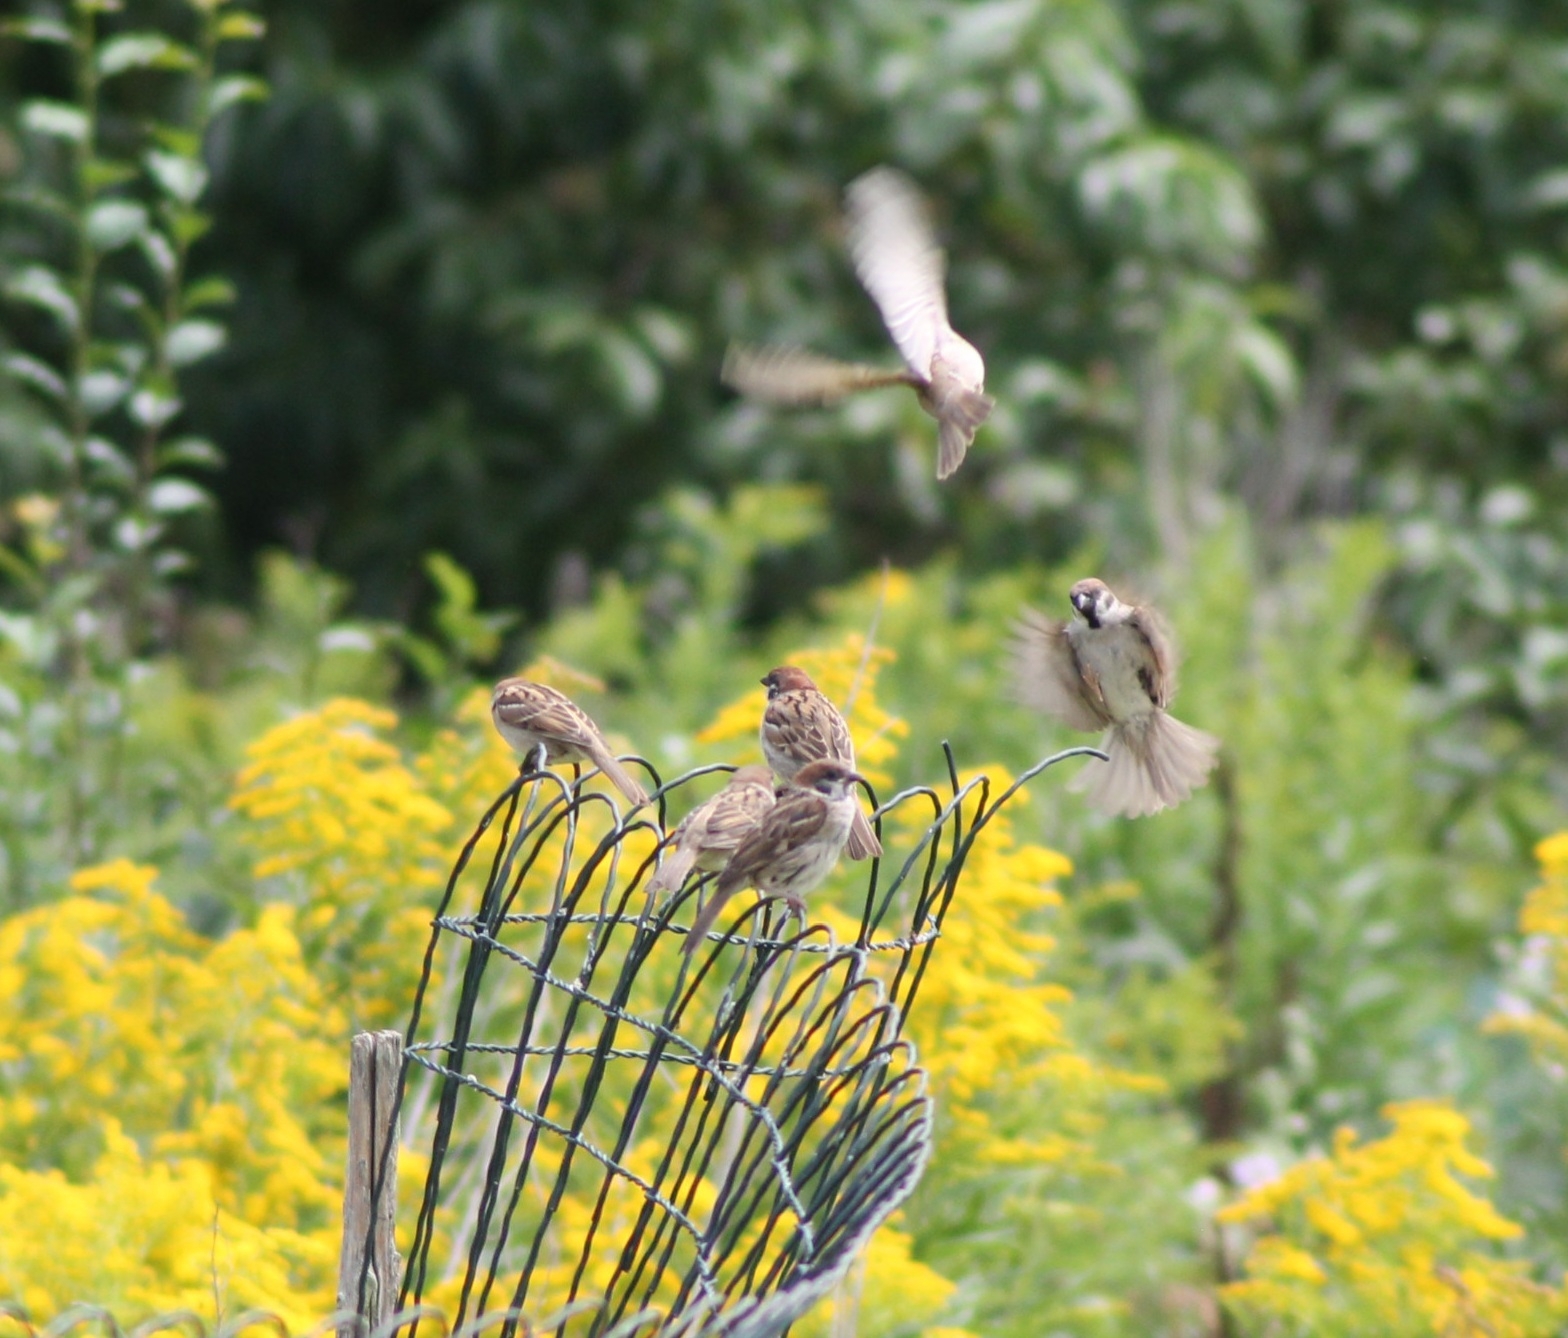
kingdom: Animalia
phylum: Chordata
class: Aves
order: Passeriformes
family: Passeridae
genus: Passer
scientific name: Passer montanus
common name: Eurasian tree sparrow
